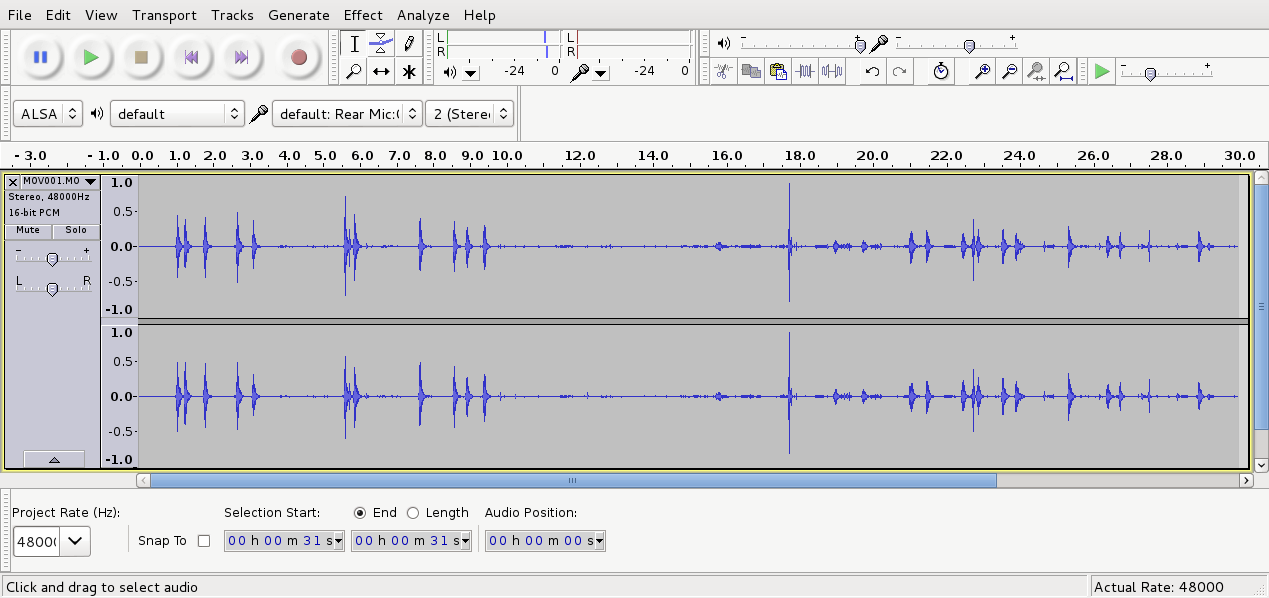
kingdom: Animalia
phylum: Chordata
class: Aves
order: Passeriformes
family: Callaeatidae
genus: Philesturnus
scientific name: Philesturnus carunculatus
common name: South island saddleback
